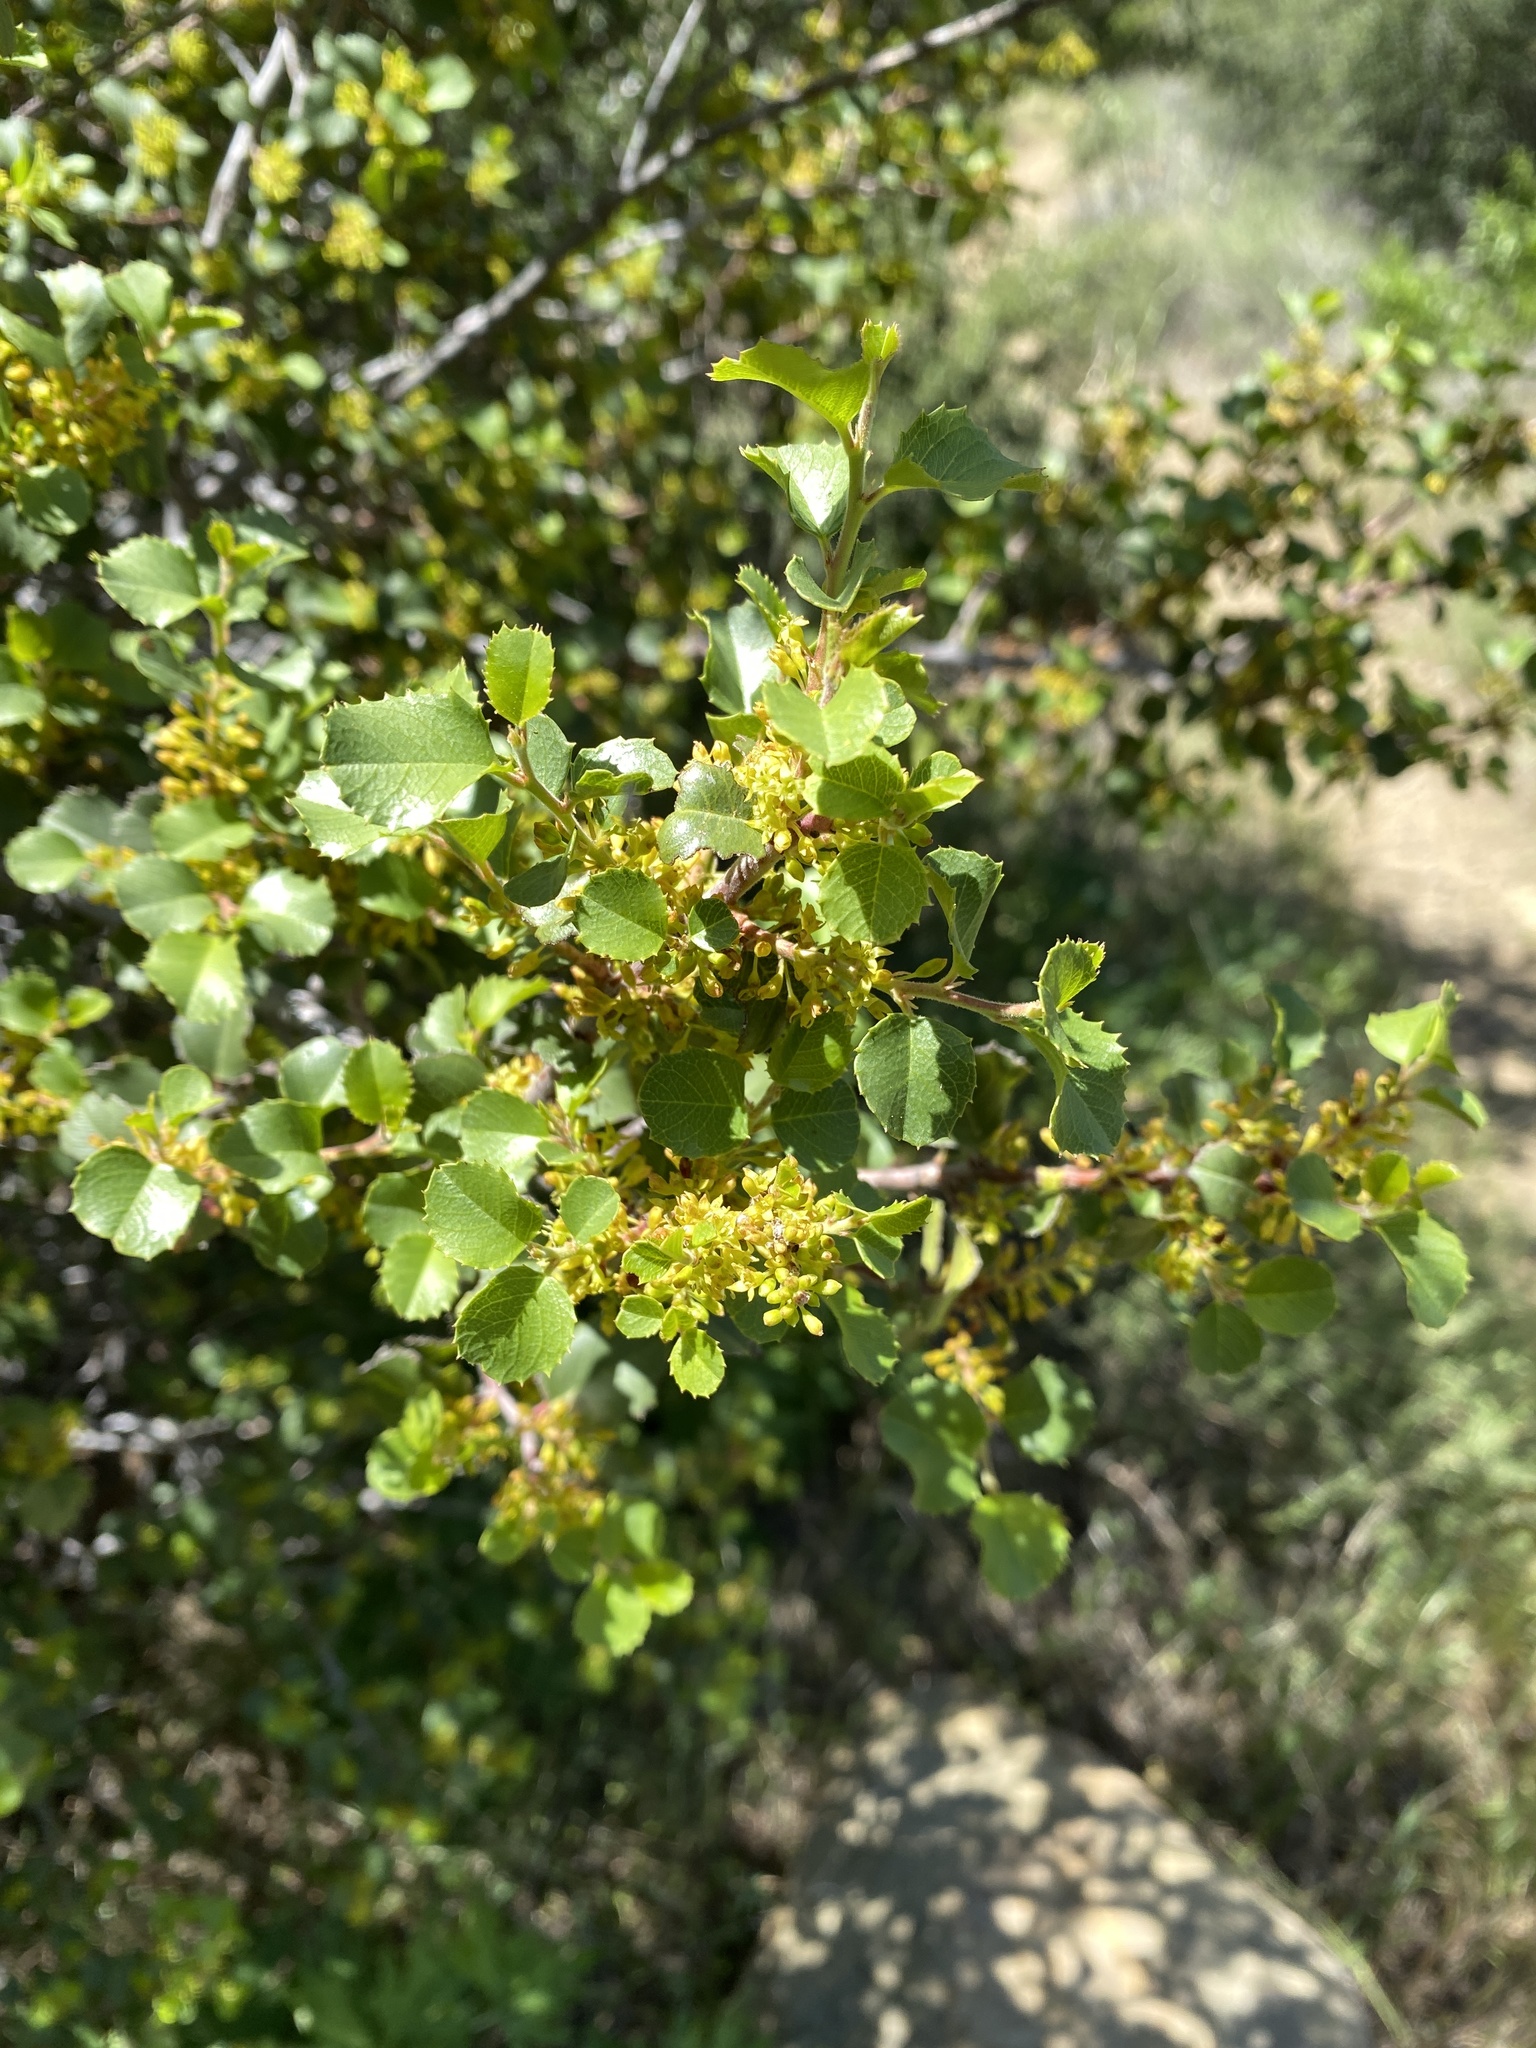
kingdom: Plantae
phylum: Tracheophyta
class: Magnoliopsida
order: Rosales
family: Rhamnaceae
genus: Endotropis
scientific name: Endotropis crocea
